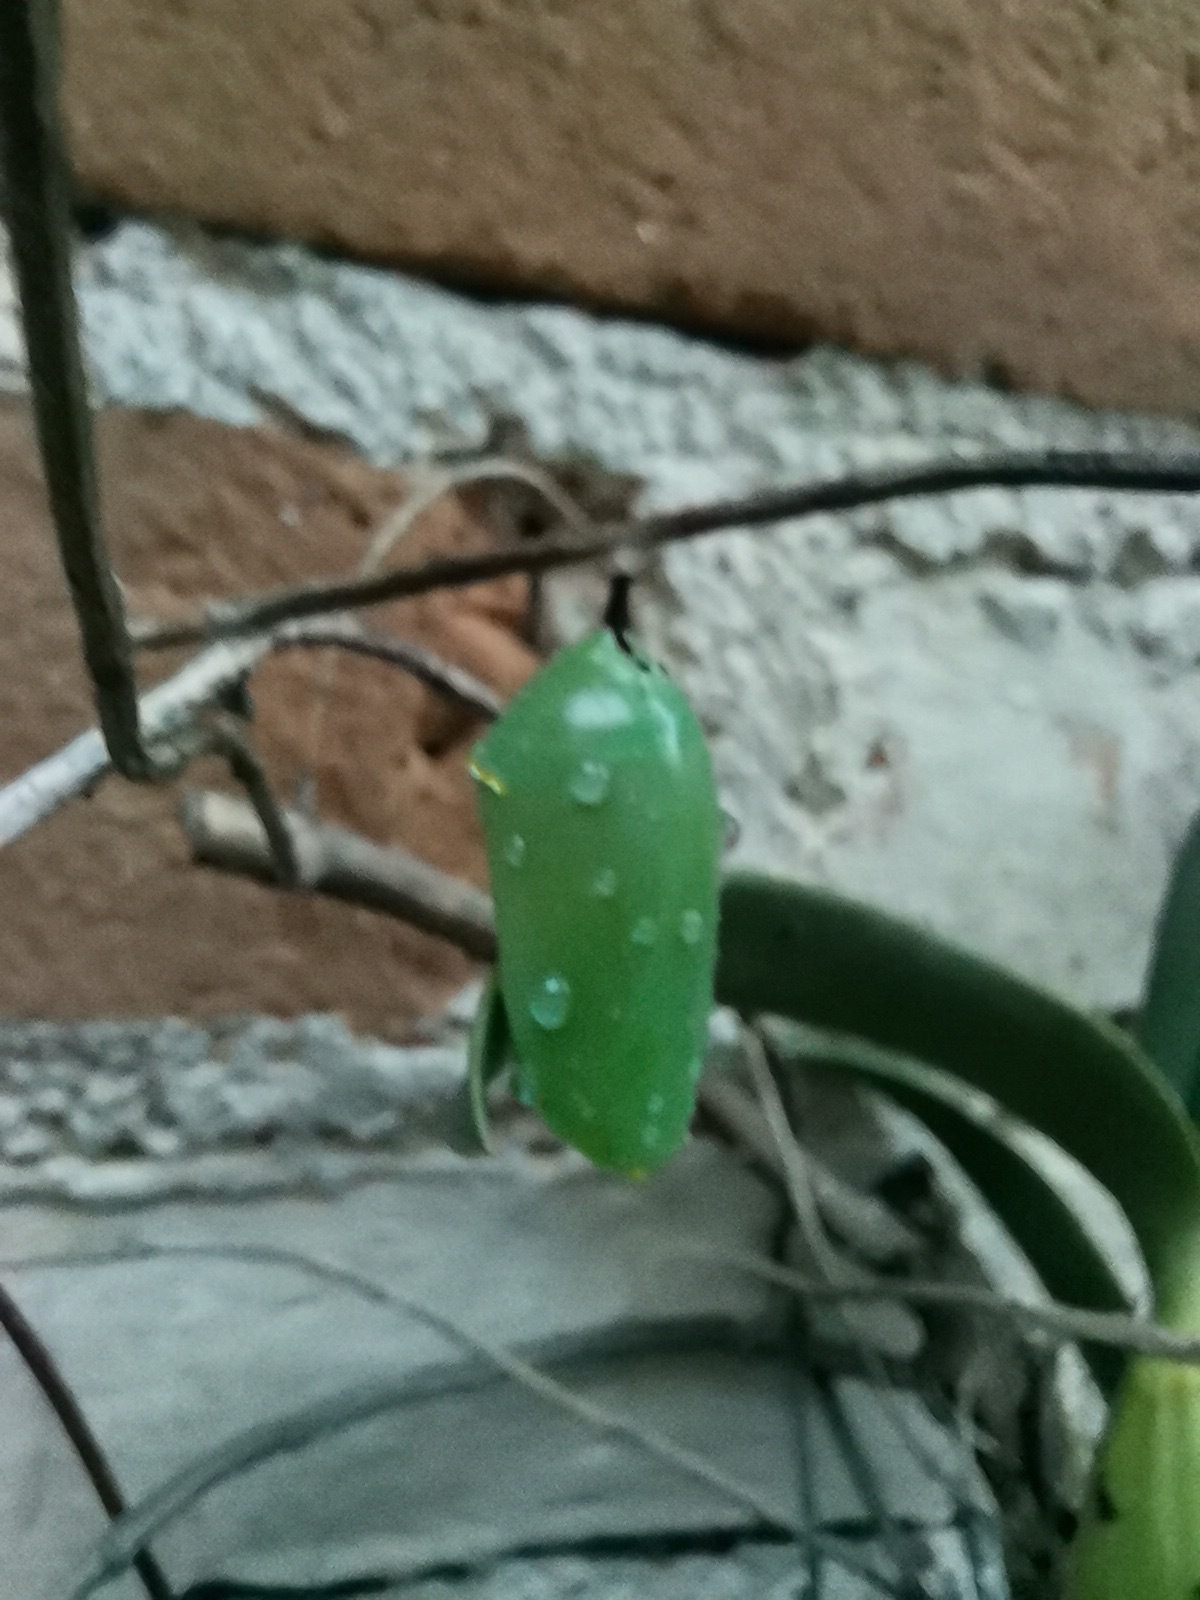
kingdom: Animalia
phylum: Arthropoda
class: Insecta
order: Lepidoptera
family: Nymphalidae
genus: Danaus
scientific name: Danaus plexippus
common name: Monarch
